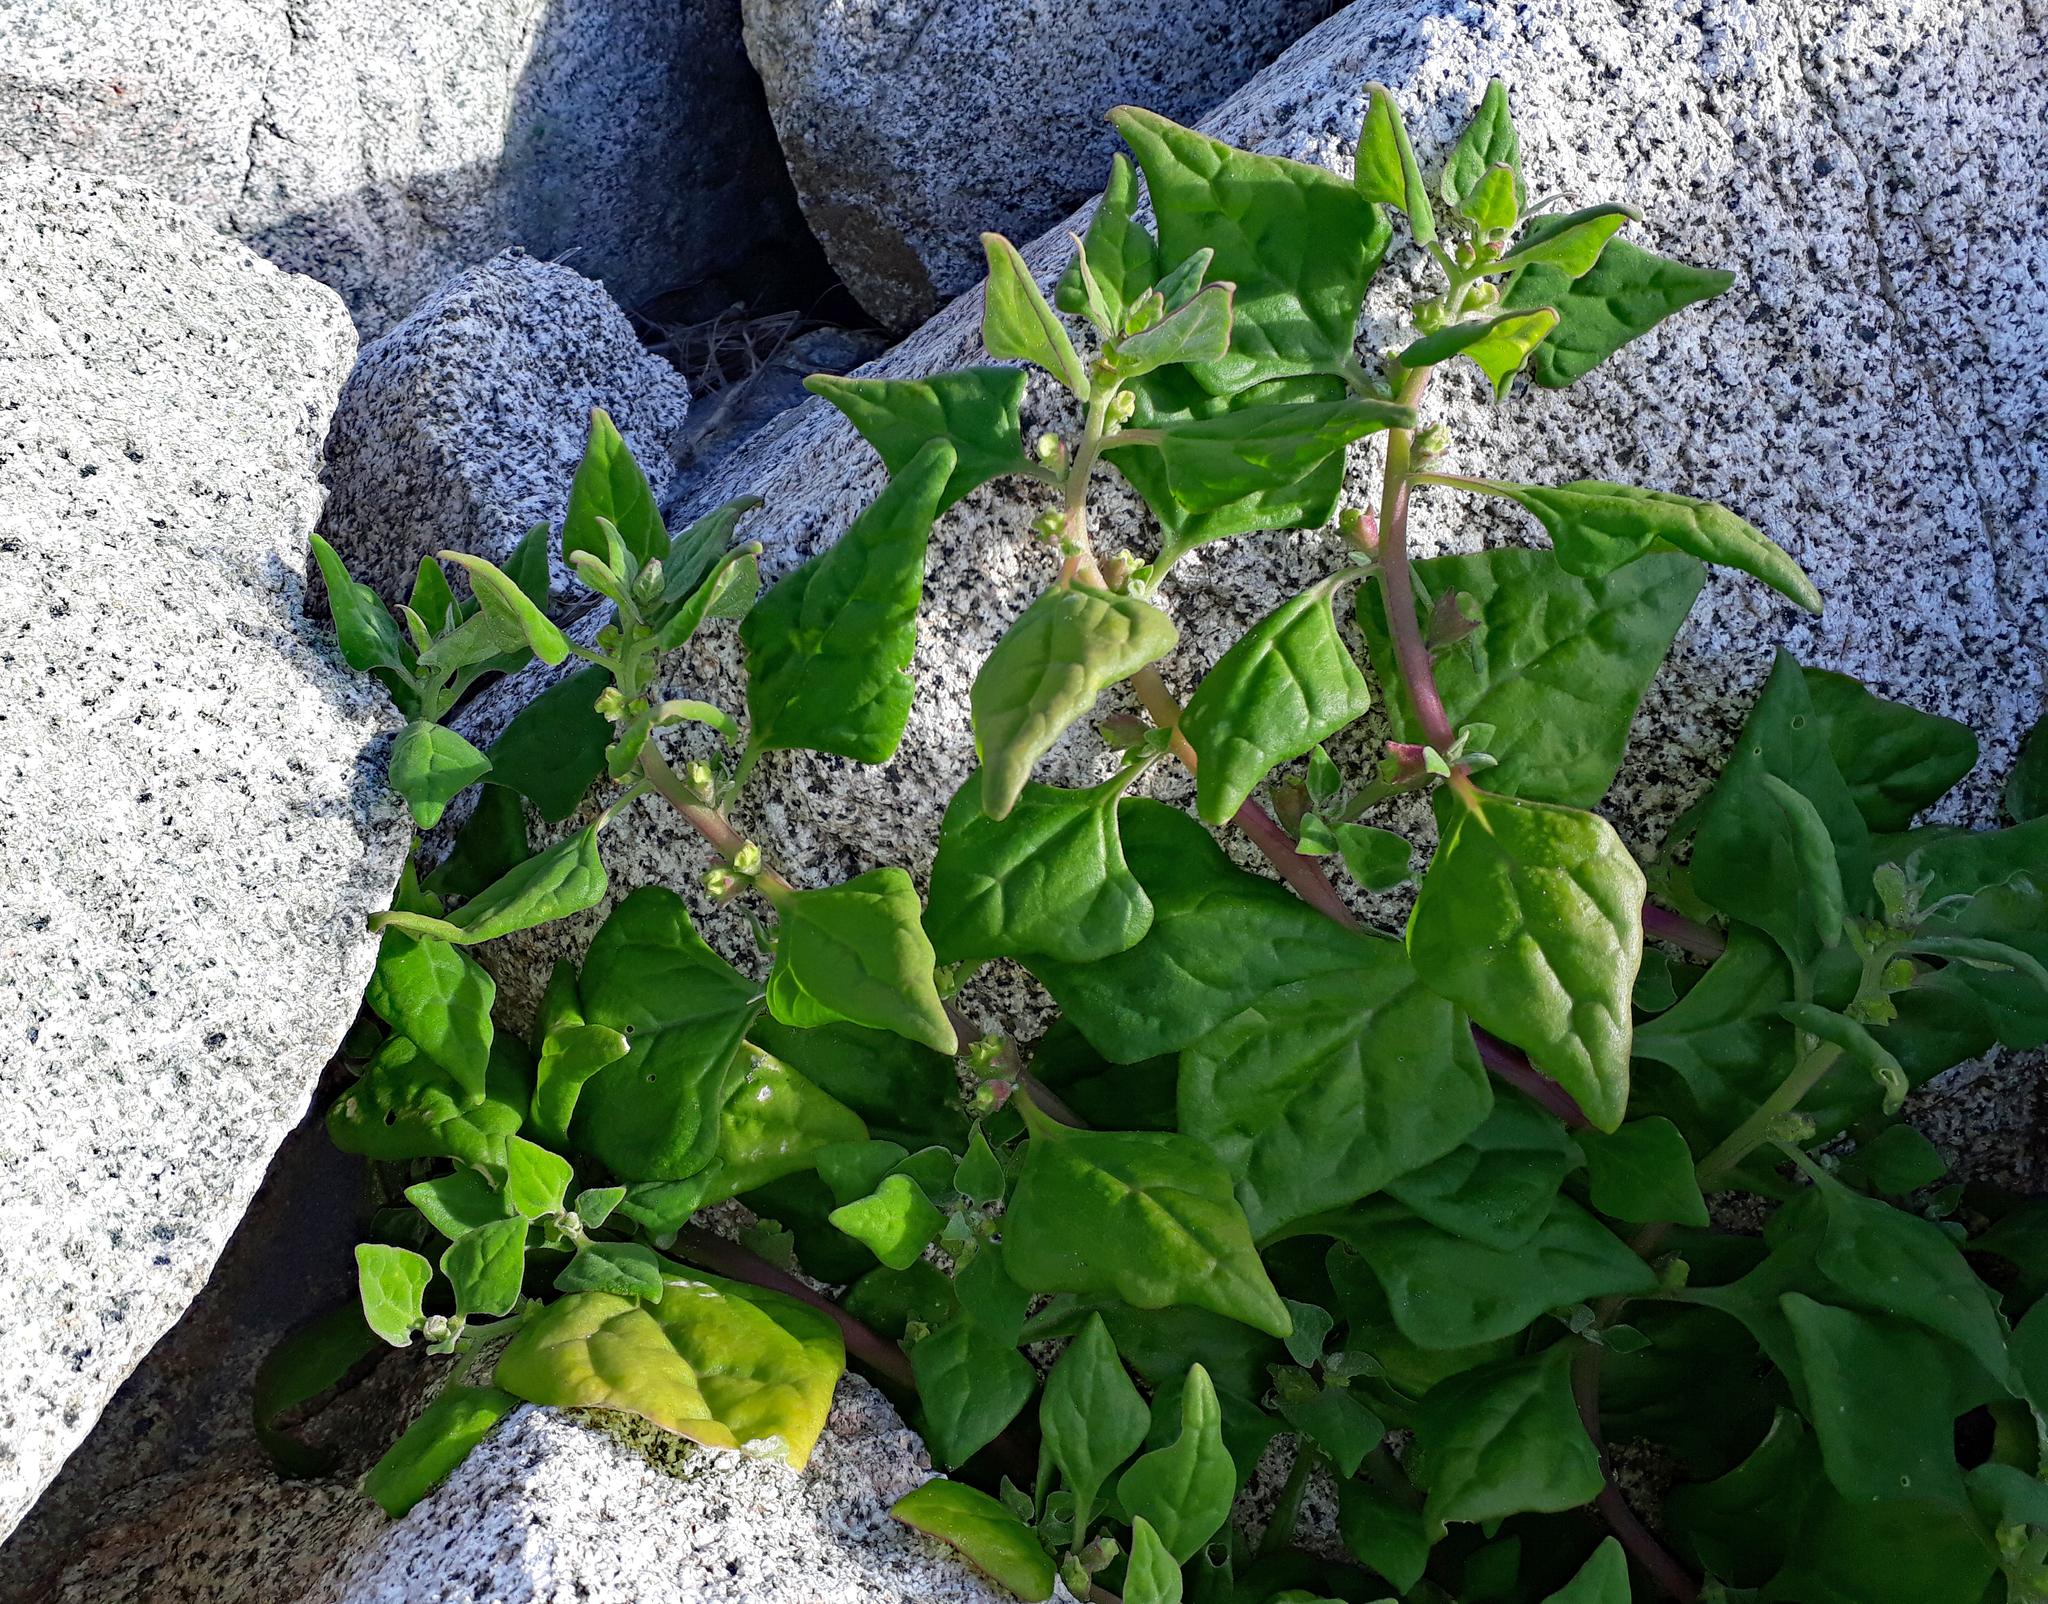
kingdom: Plantae
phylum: Tracheophyta
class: Magnoliopsida
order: Caryophyllales
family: Aizoaceae
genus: Tetragonia
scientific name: Tetragonia tetragonoides
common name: New zealand-spinach
